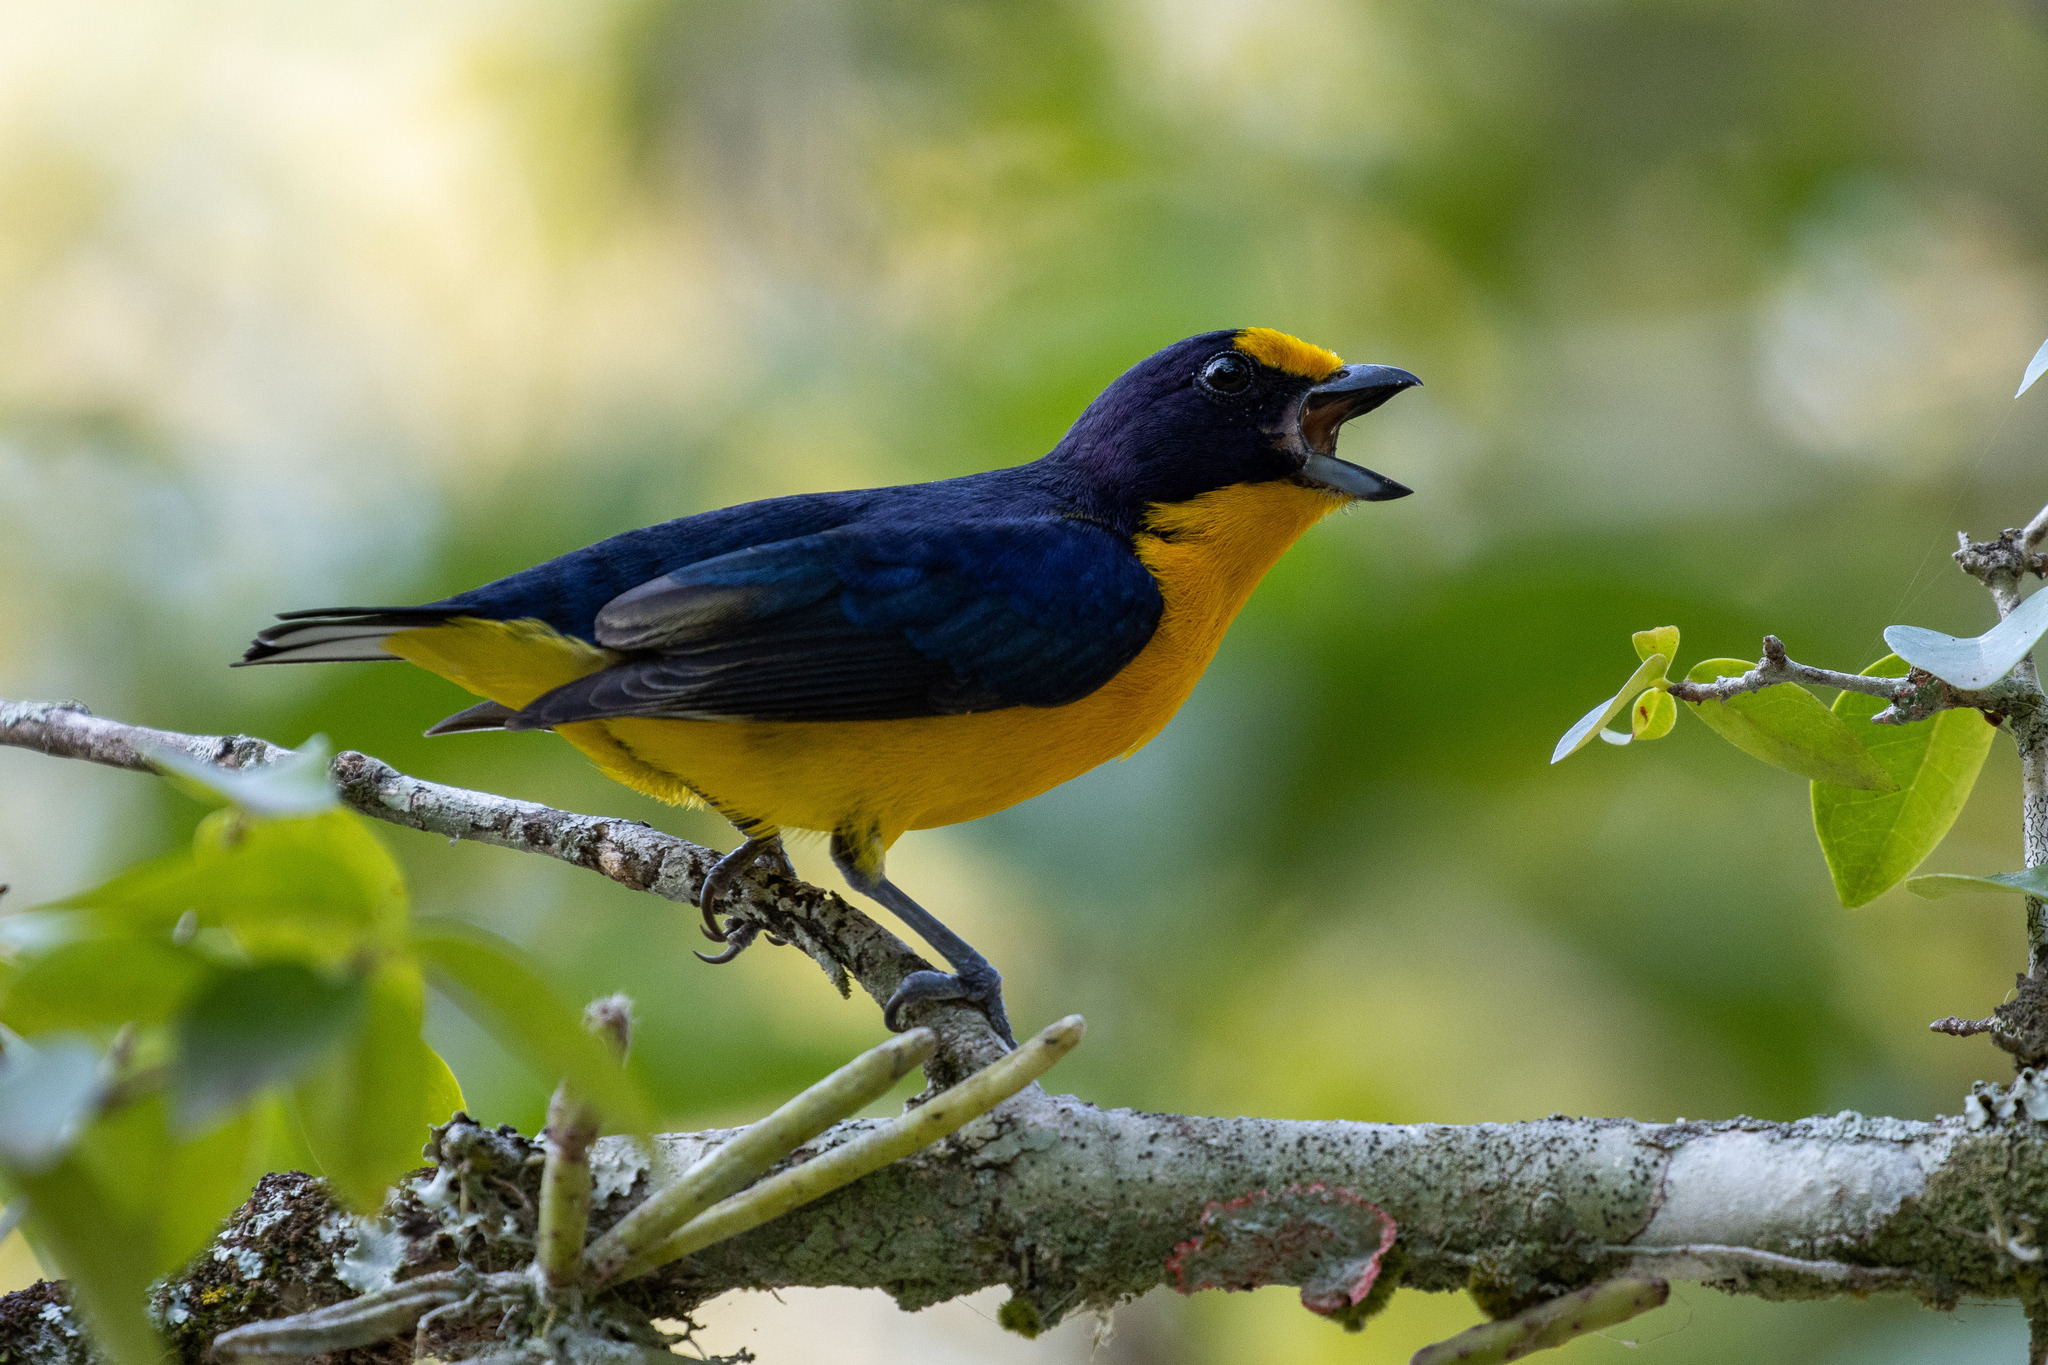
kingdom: Animalia
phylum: Chordata
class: Aves
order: Passeriformes
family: Fringillidae
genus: Euphonia
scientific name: Euphonia violacea
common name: Violaceous euphonia
